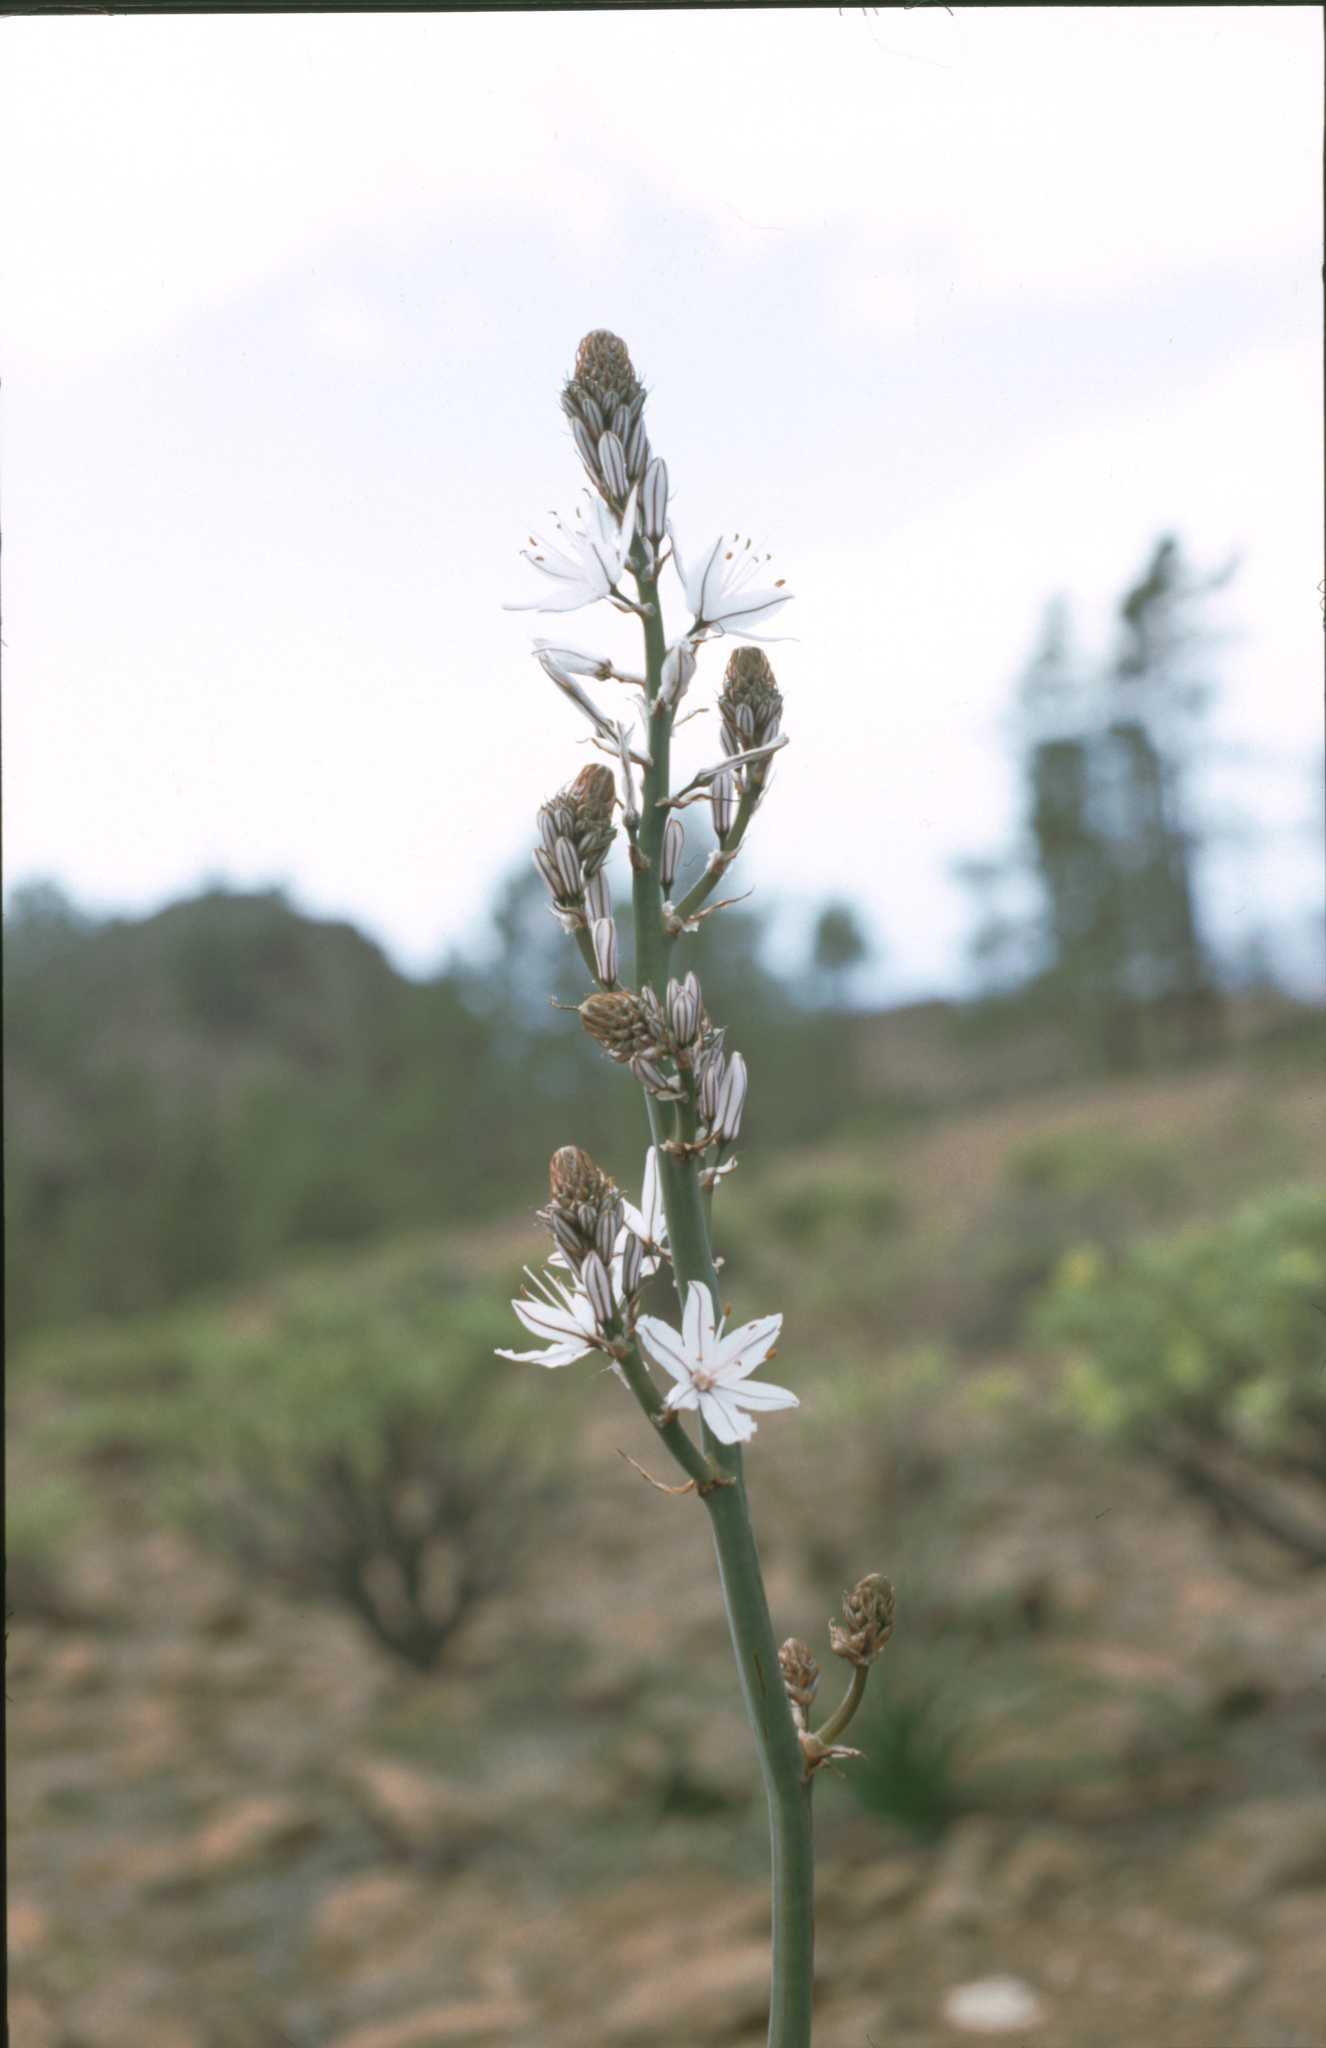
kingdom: Plantae
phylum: Tracheophyta
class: Liliopsida
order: Asparagales
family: Asphodelaceae
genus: Asphodelus
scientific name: Asphodelus ramosus
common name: Silverrod
